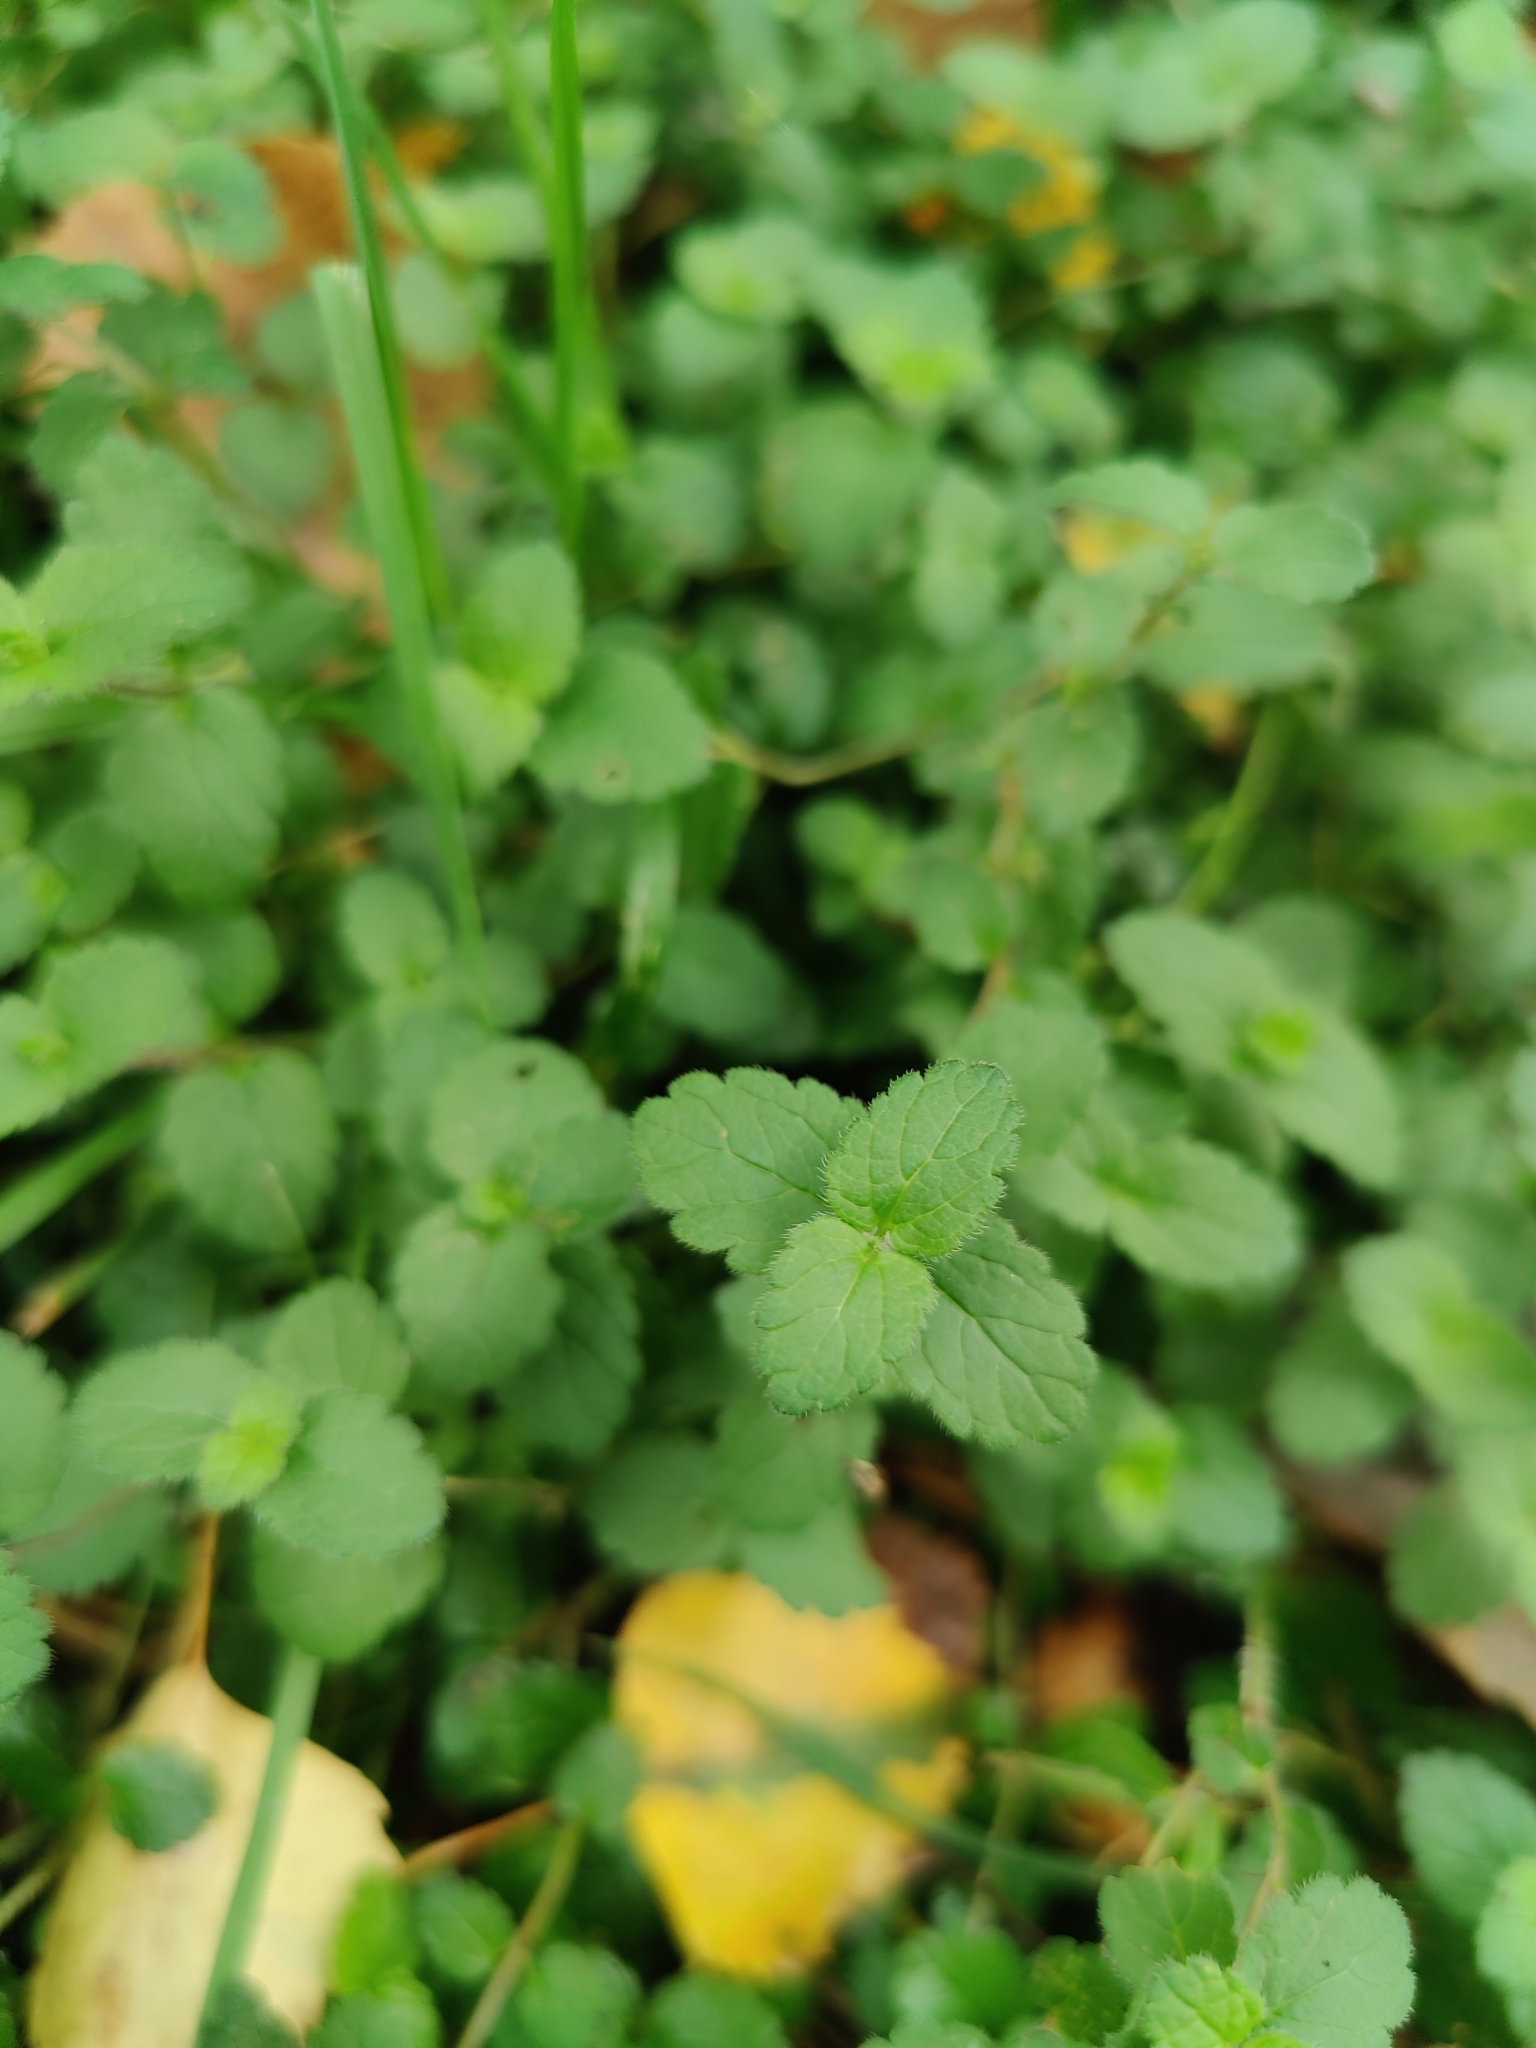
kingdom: Plantae
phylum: Tracheophyta
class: Magnoliopsida
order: Lamiales
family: Plantaginaceae
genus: Veronica
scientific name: Veronica chamaedrys
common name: Germander speedwell
